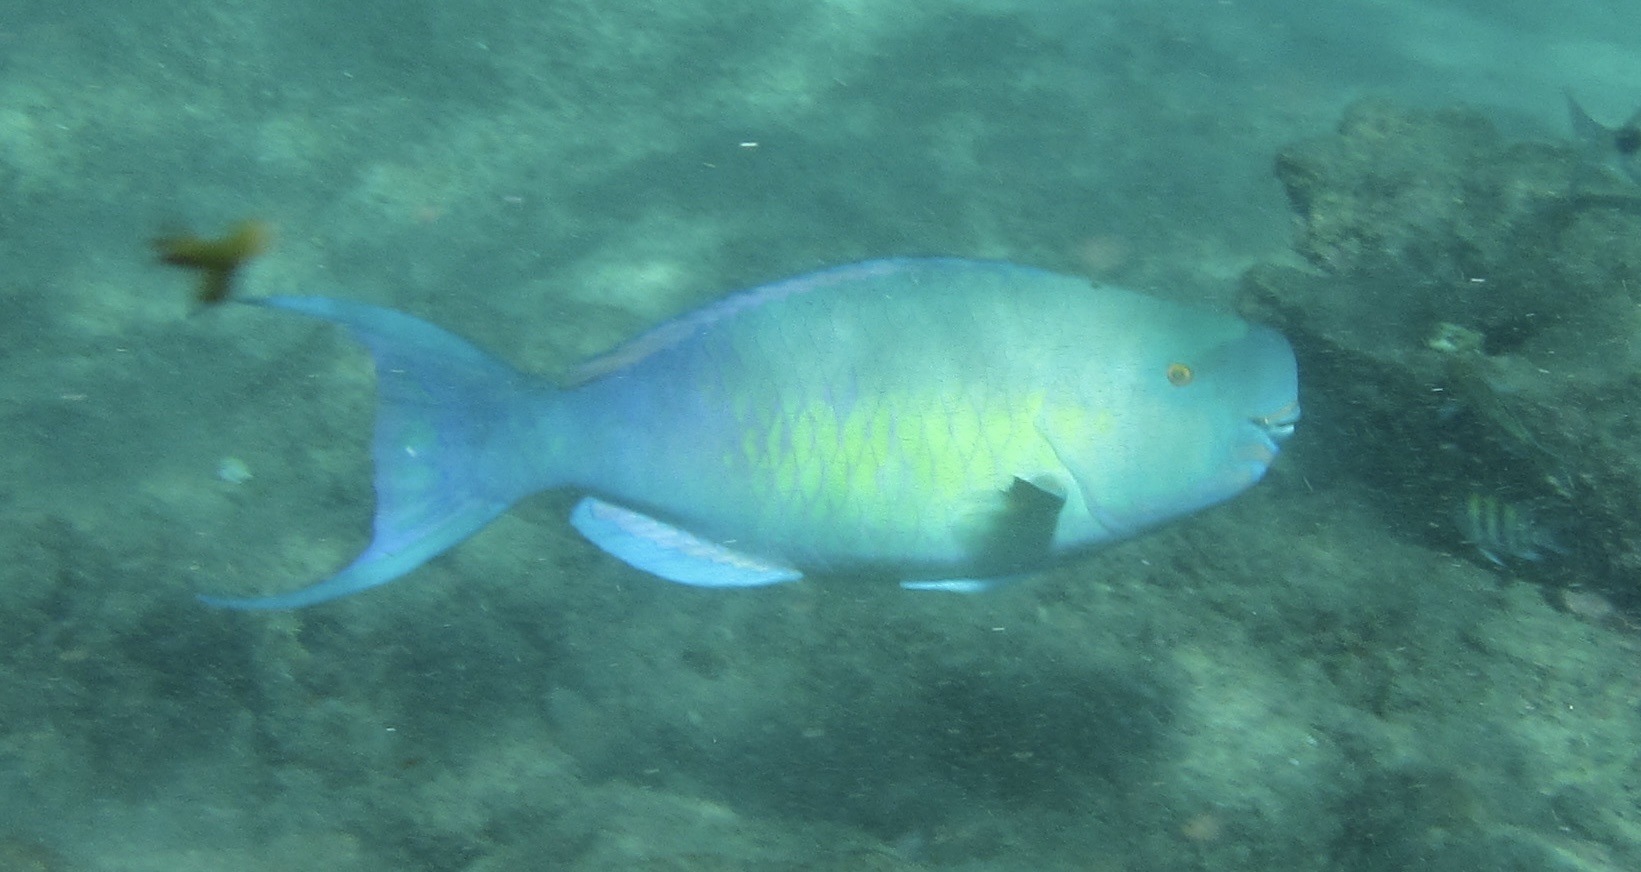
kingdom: Animalia
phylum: Chordata
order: Perciformes
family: Scaridae
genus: Scarus
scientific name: Scarus rubroviolaceus
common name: Ember parrotfish
